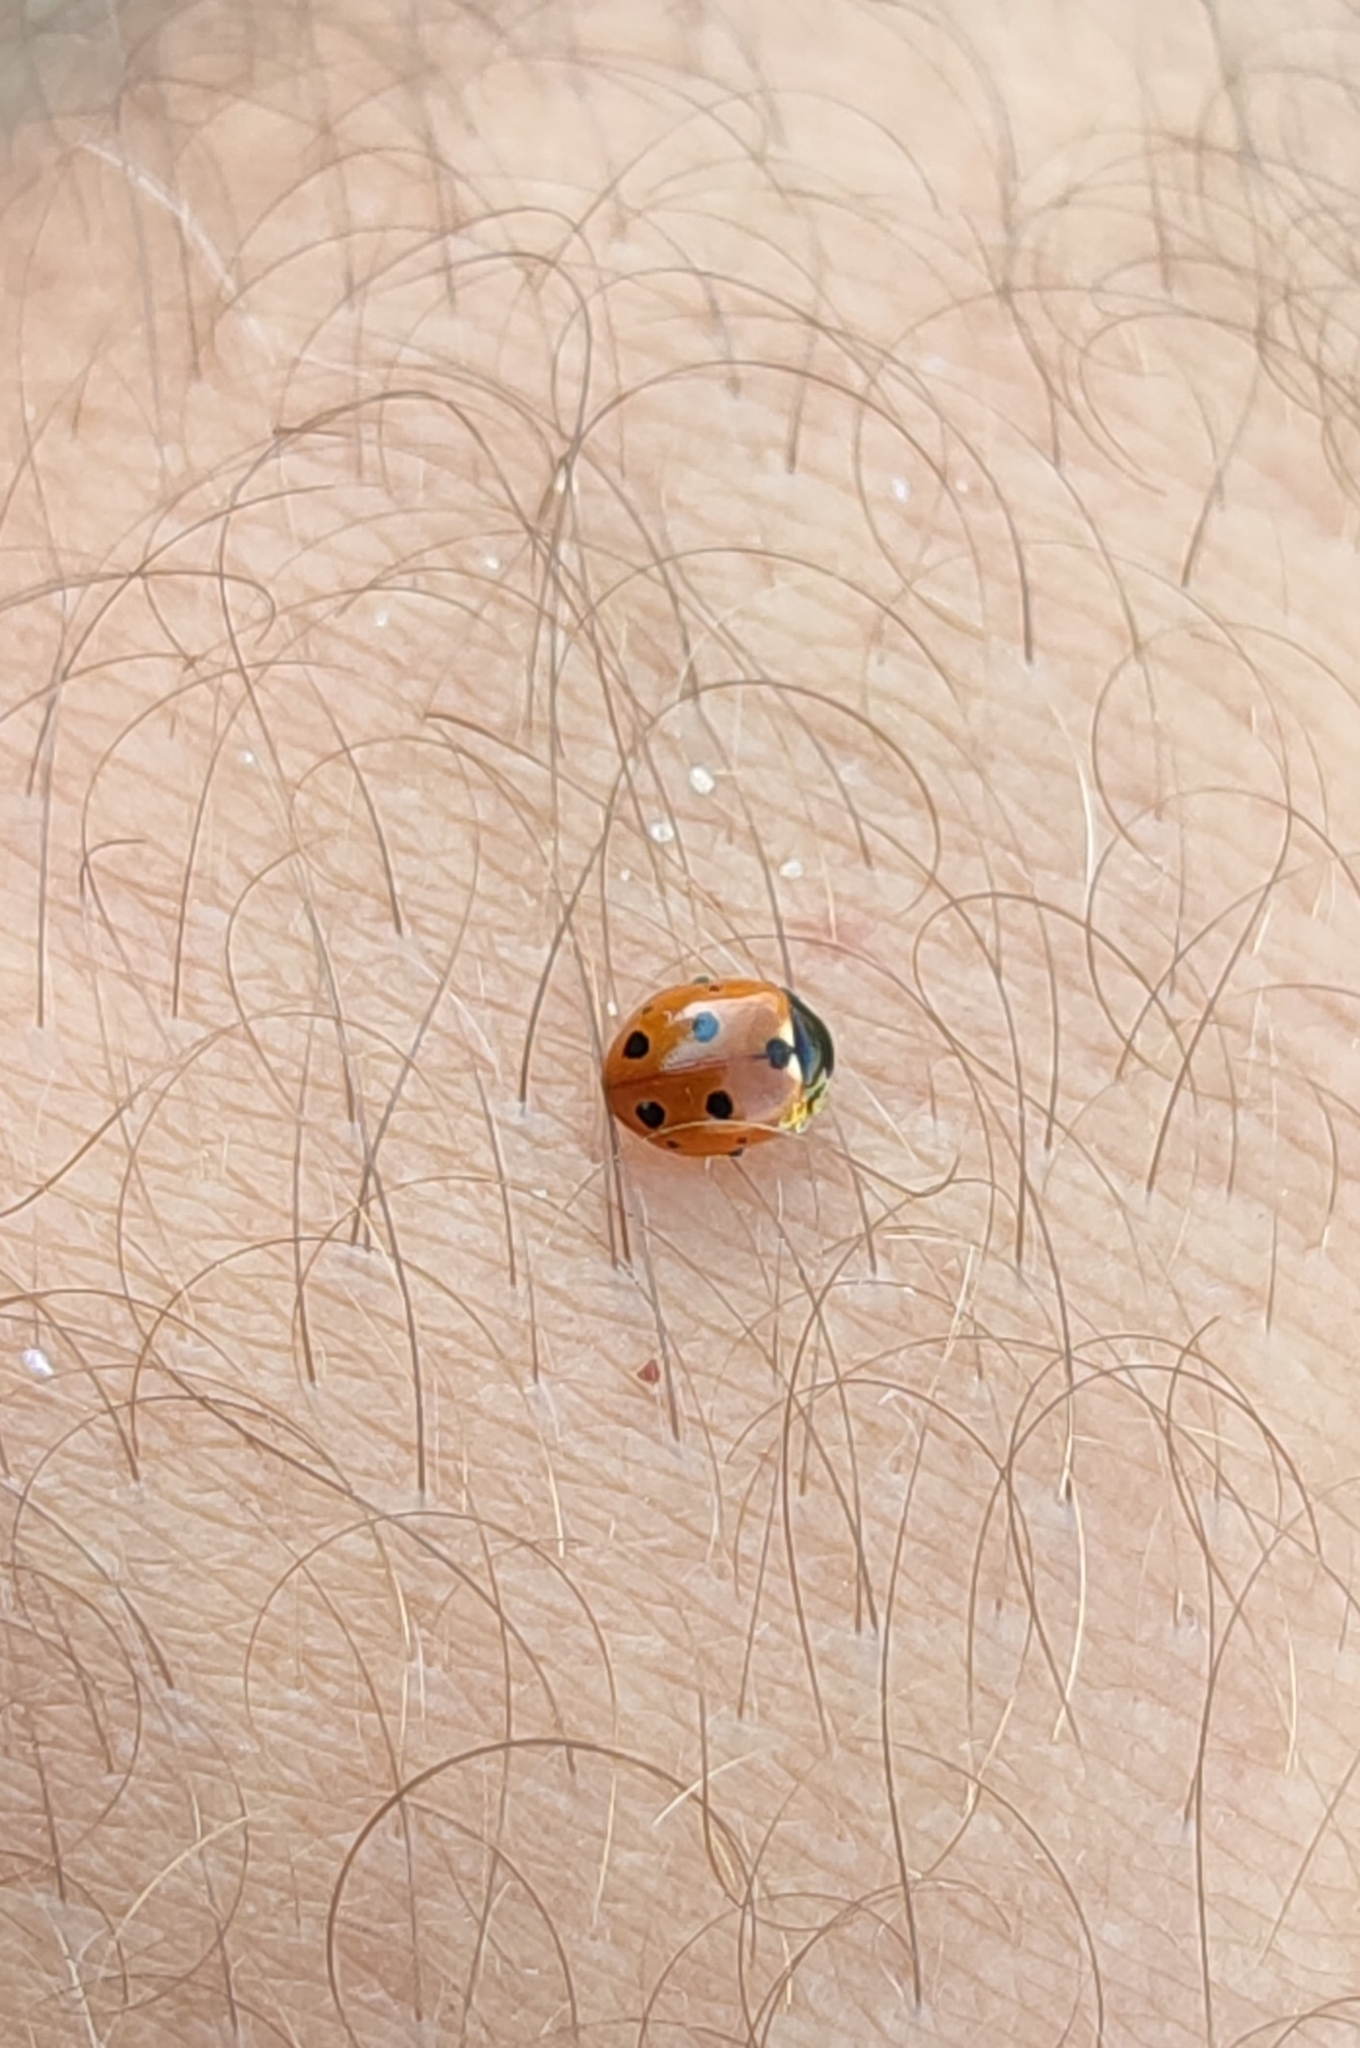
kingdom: Animalia
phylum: Arthropoda
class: Insecta
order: Coleoptera
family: Coccinellidae
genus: Coccinella
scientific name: Coccinella undecimpunctata
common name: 11-spot ladybird
